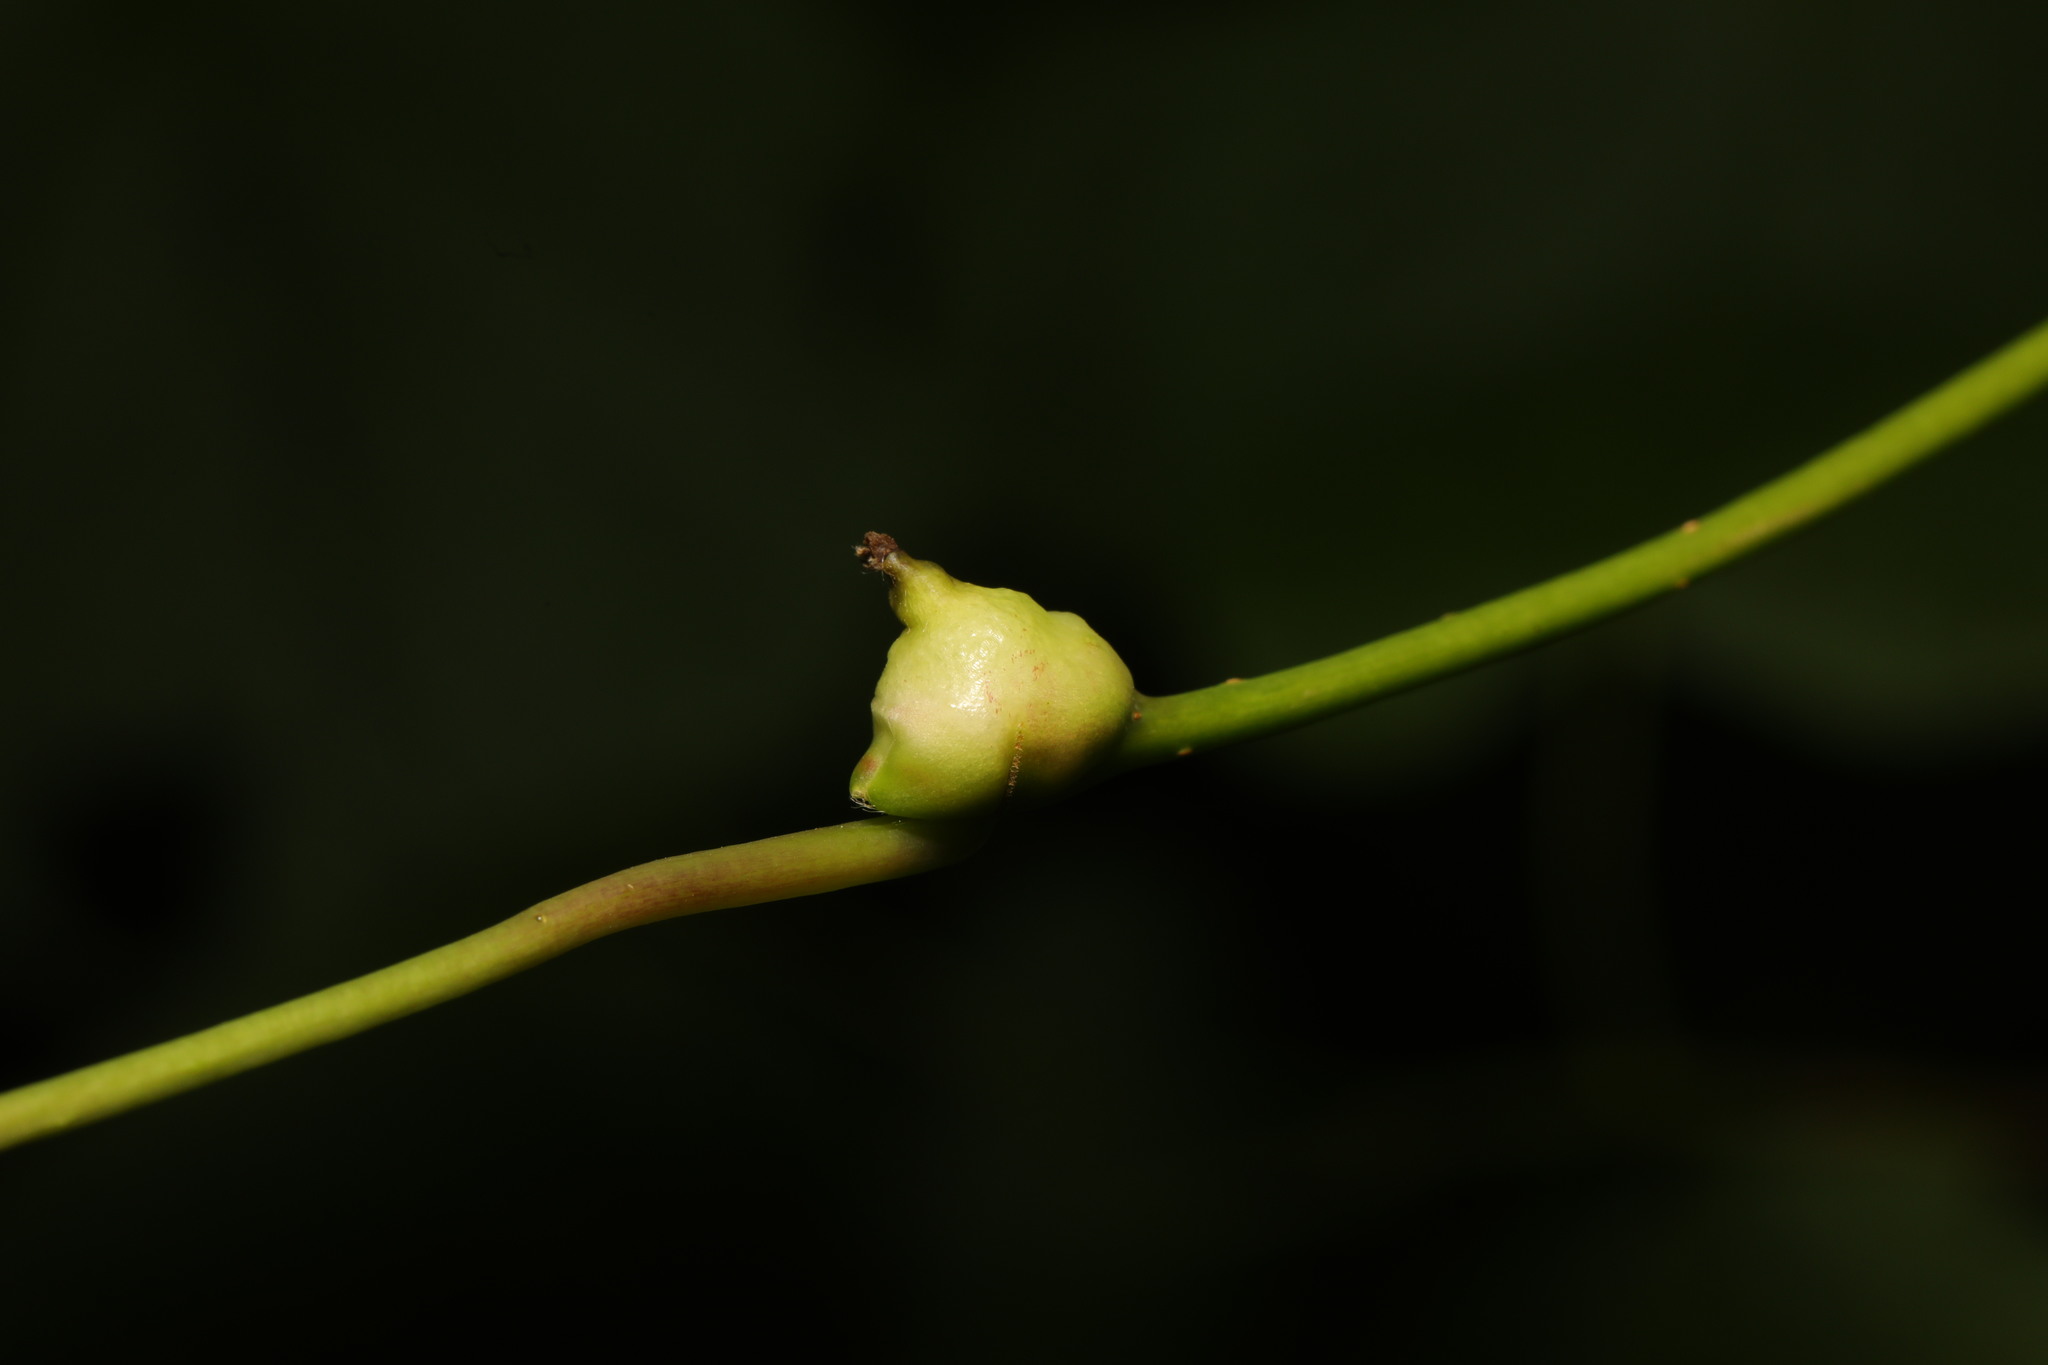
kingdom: Animalia
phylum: Arthropoda
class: Insecta
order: Diptera
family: Cecidomyiidae
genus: Contarinia
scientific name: Contarinia tiliarum
